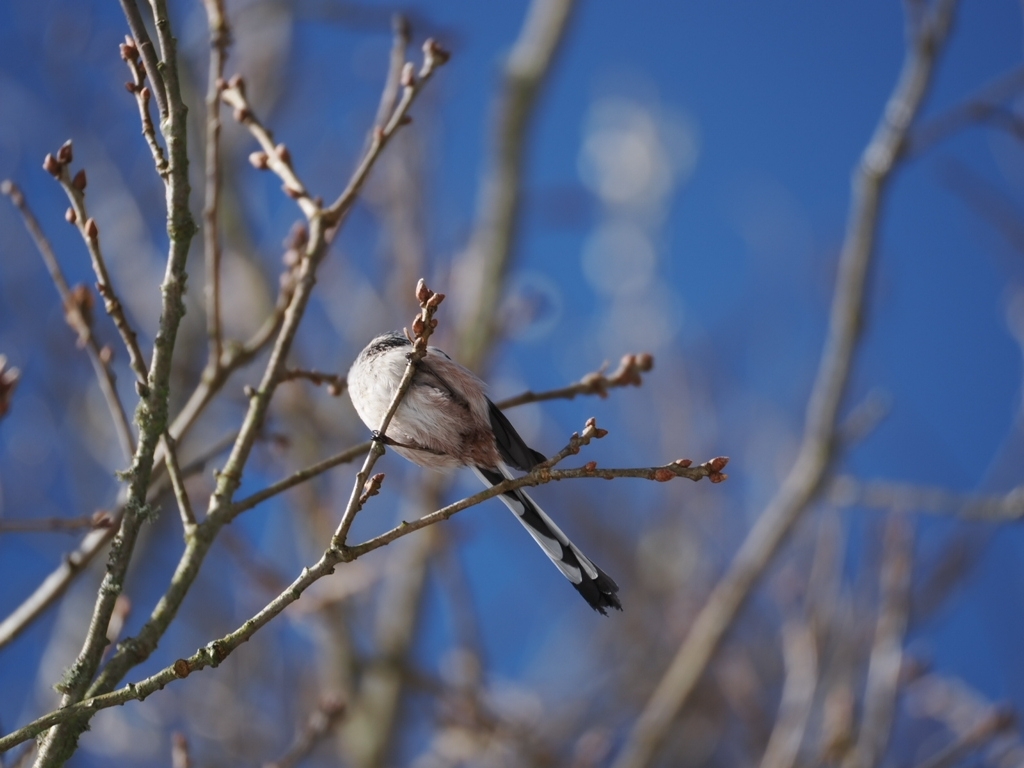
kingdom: Animalia
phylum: Chordata
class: Aves
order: Passeriformes
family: Aegithalidae
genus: Aegithalos
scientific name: Aegithalos caudatus
